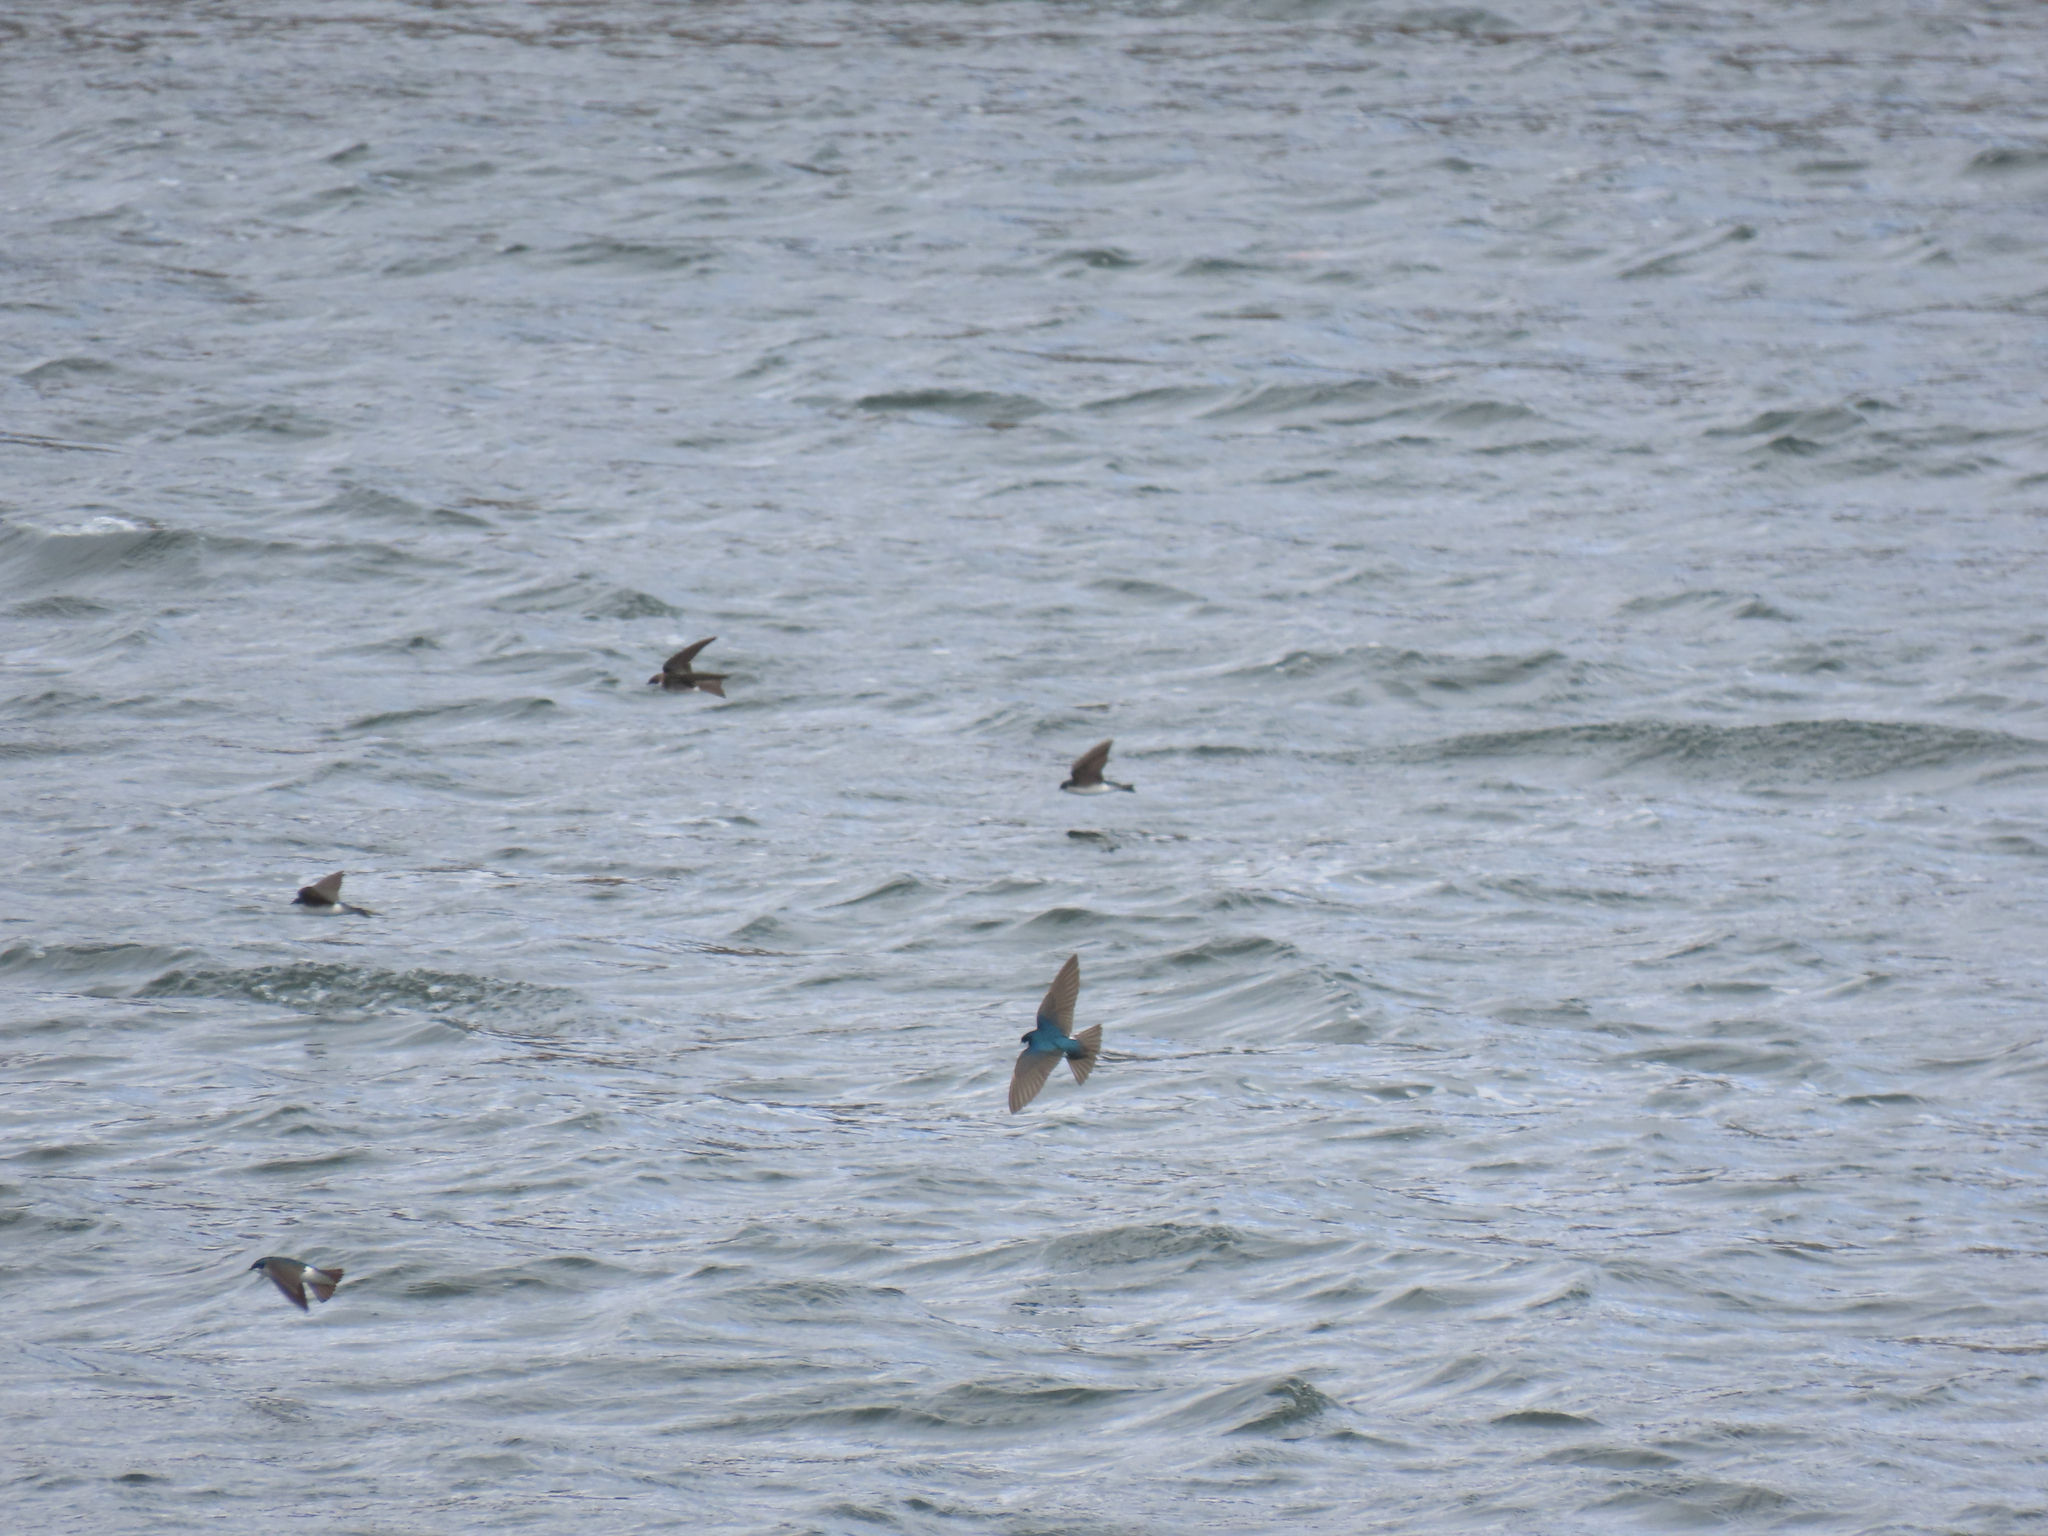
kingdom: Animalia
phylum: Chordata
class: Aves
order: Passeriformes
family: Hirundinidae
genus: Tachycineta
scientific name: Tachycineta bicolor
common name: Tree swallow
